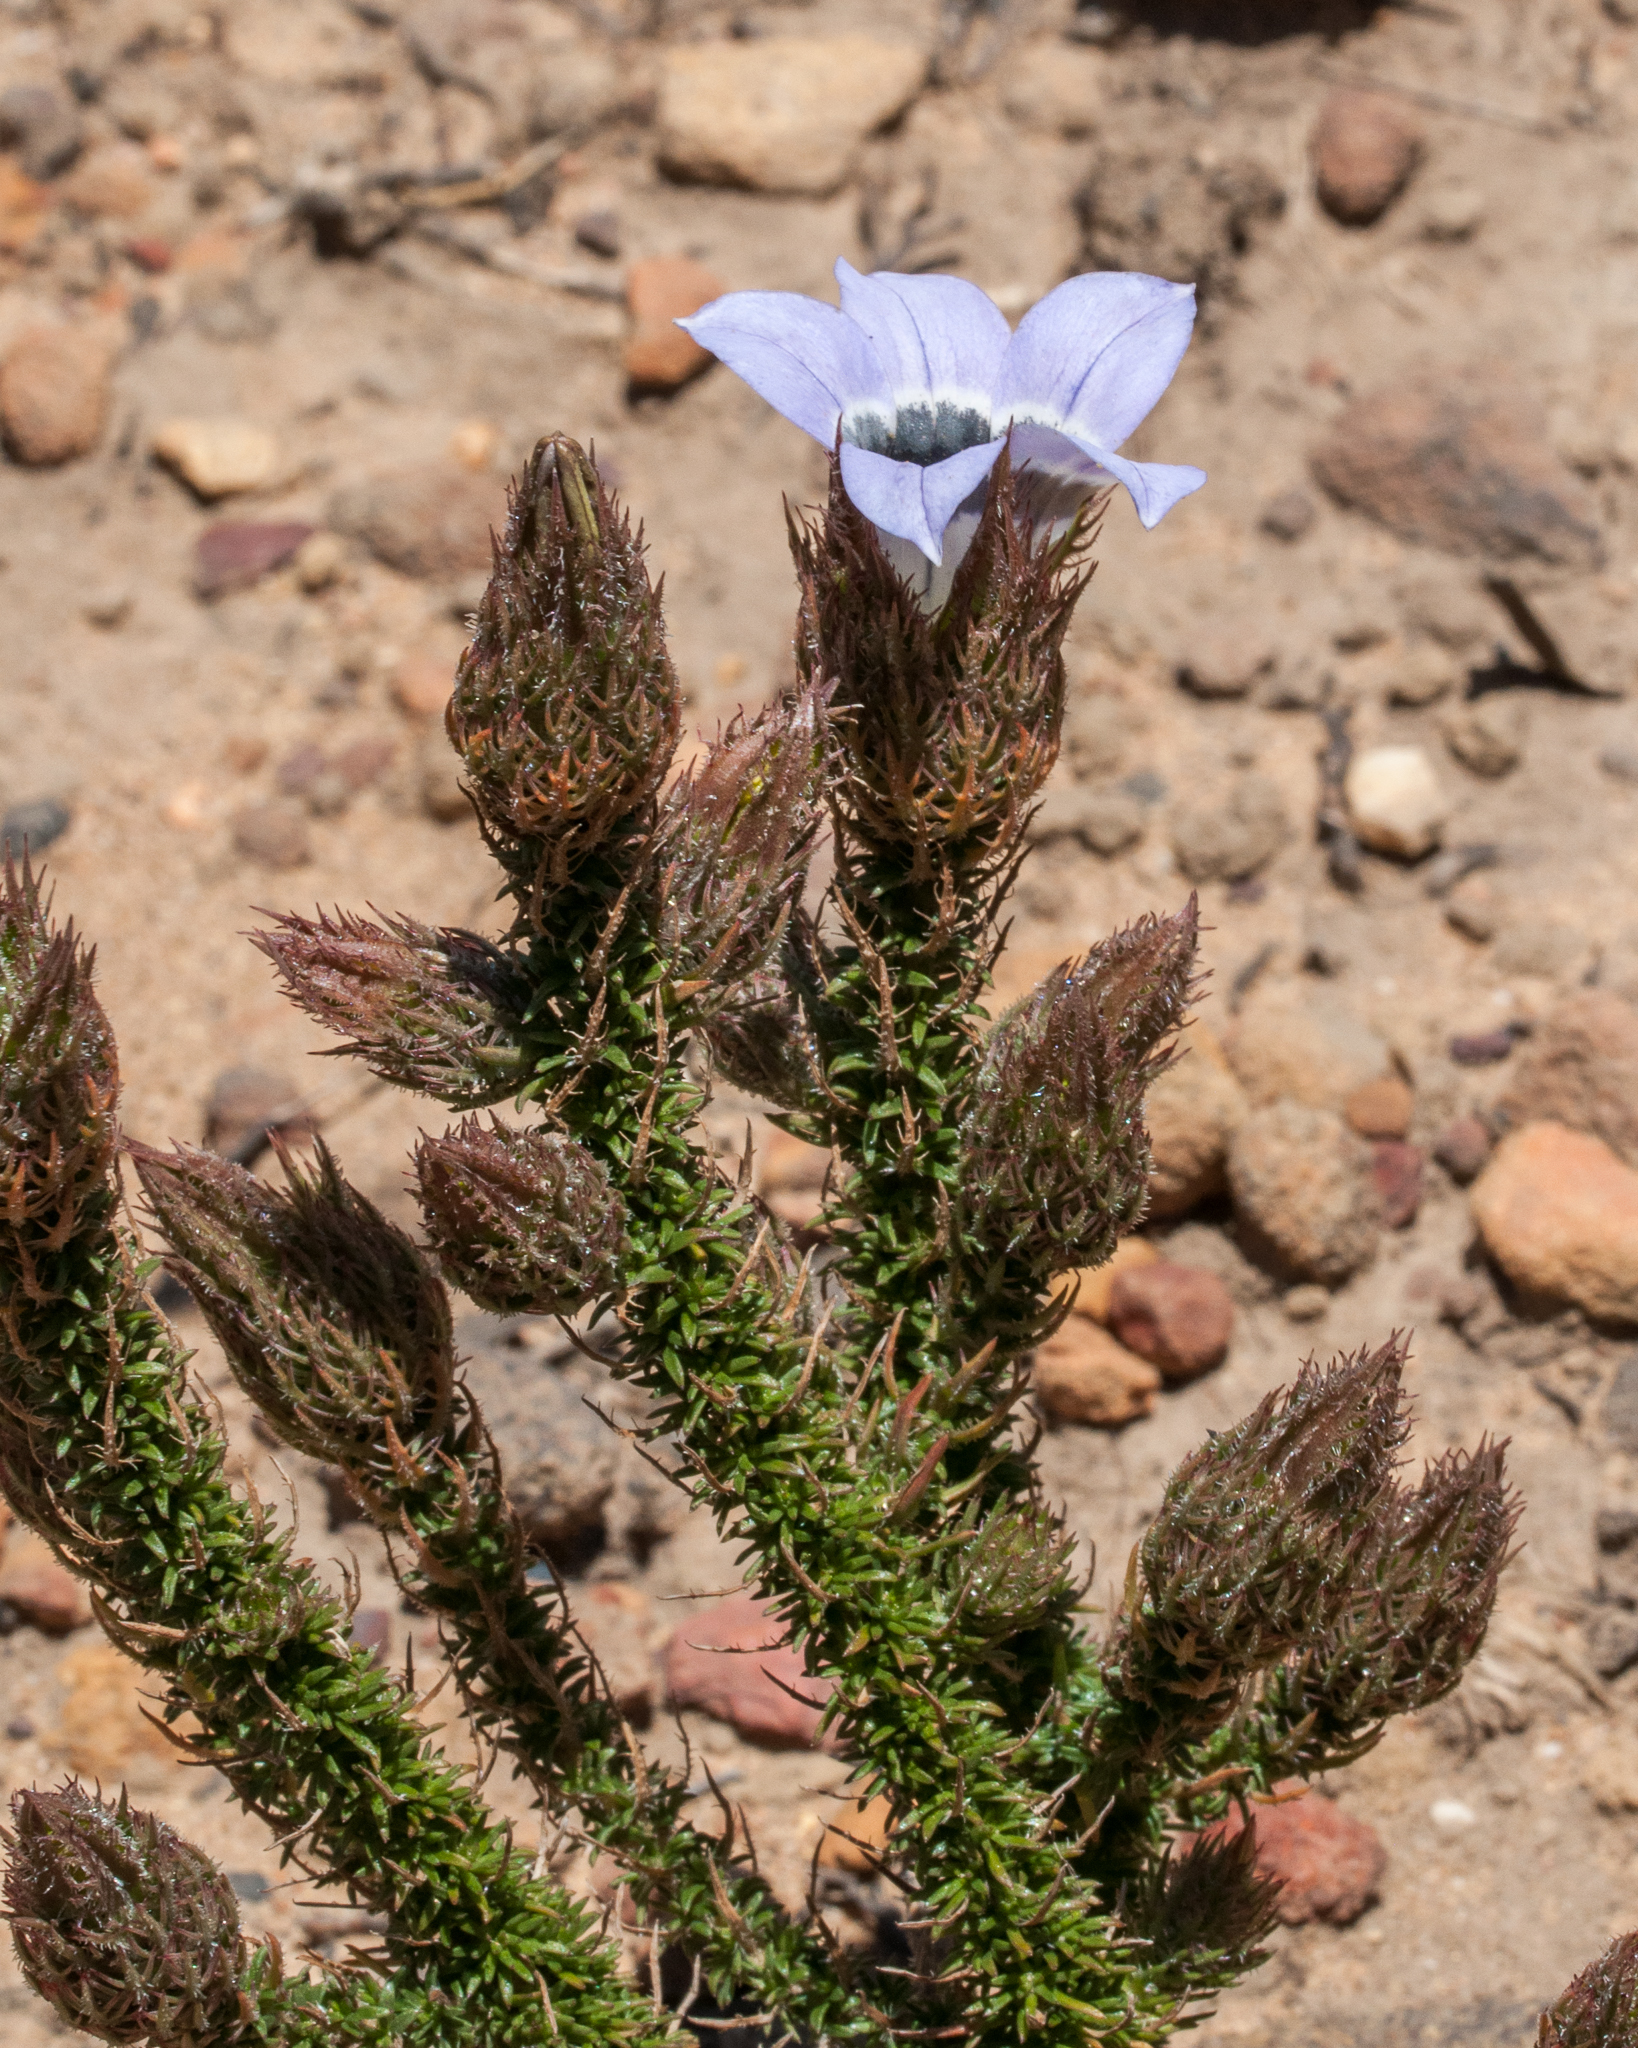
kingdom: Plantae
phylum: Tracheophyta
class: Magnoliopsida
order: Asterales
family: Campanulaceae
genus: Roella
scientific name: Roella incurva
